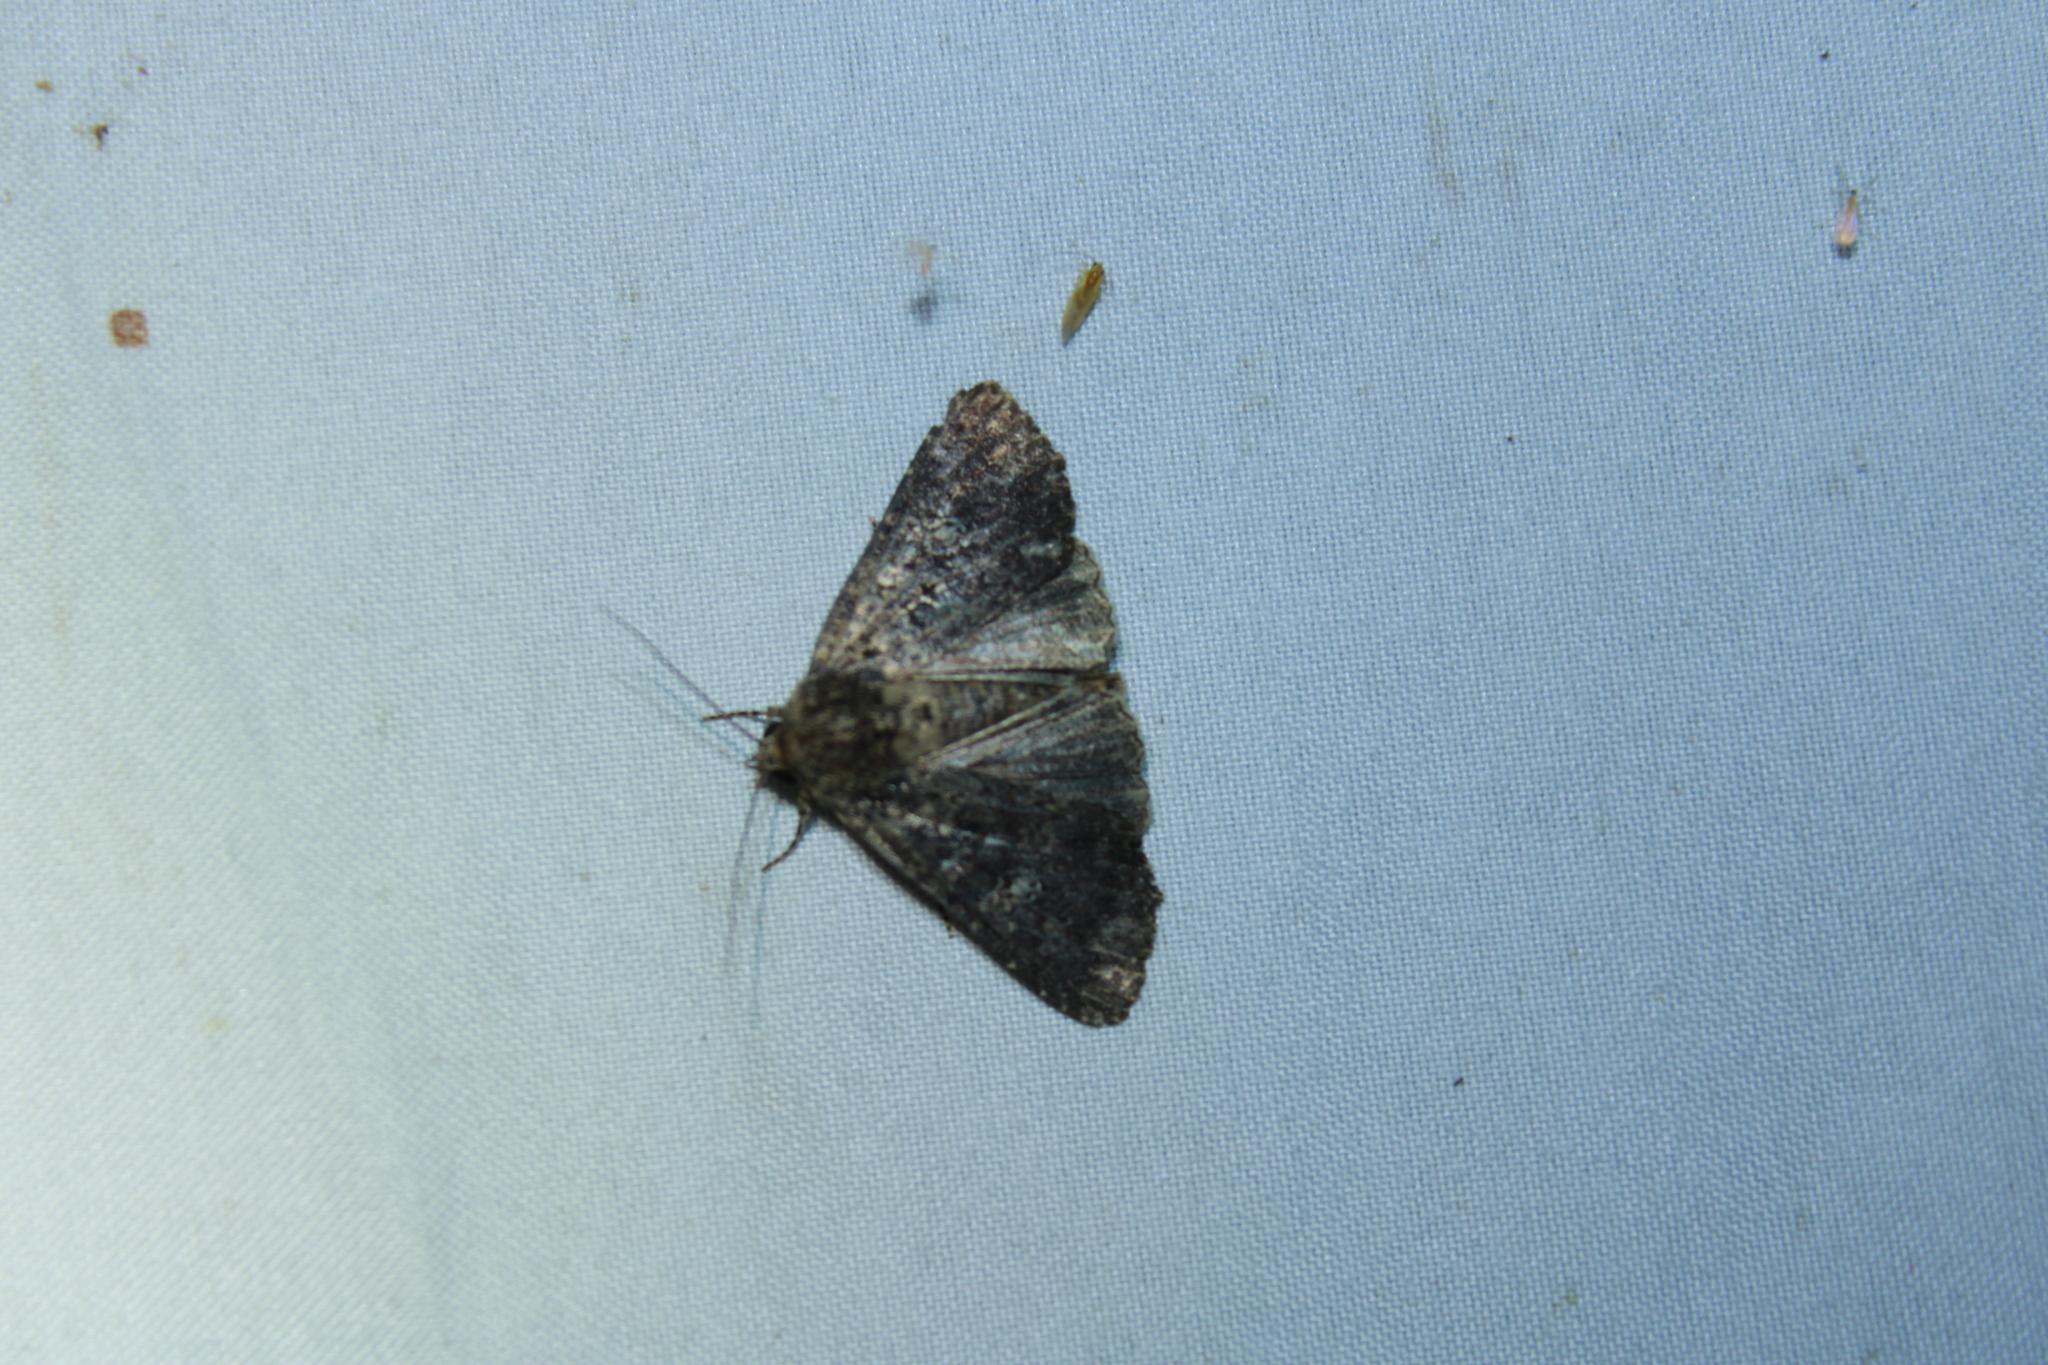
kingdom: Animalia
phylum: Arthropoda
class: Insecta
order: Lepidoptera
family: Noctuidae
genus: Condica
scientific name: Condica vecors
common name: Dusky groundling
